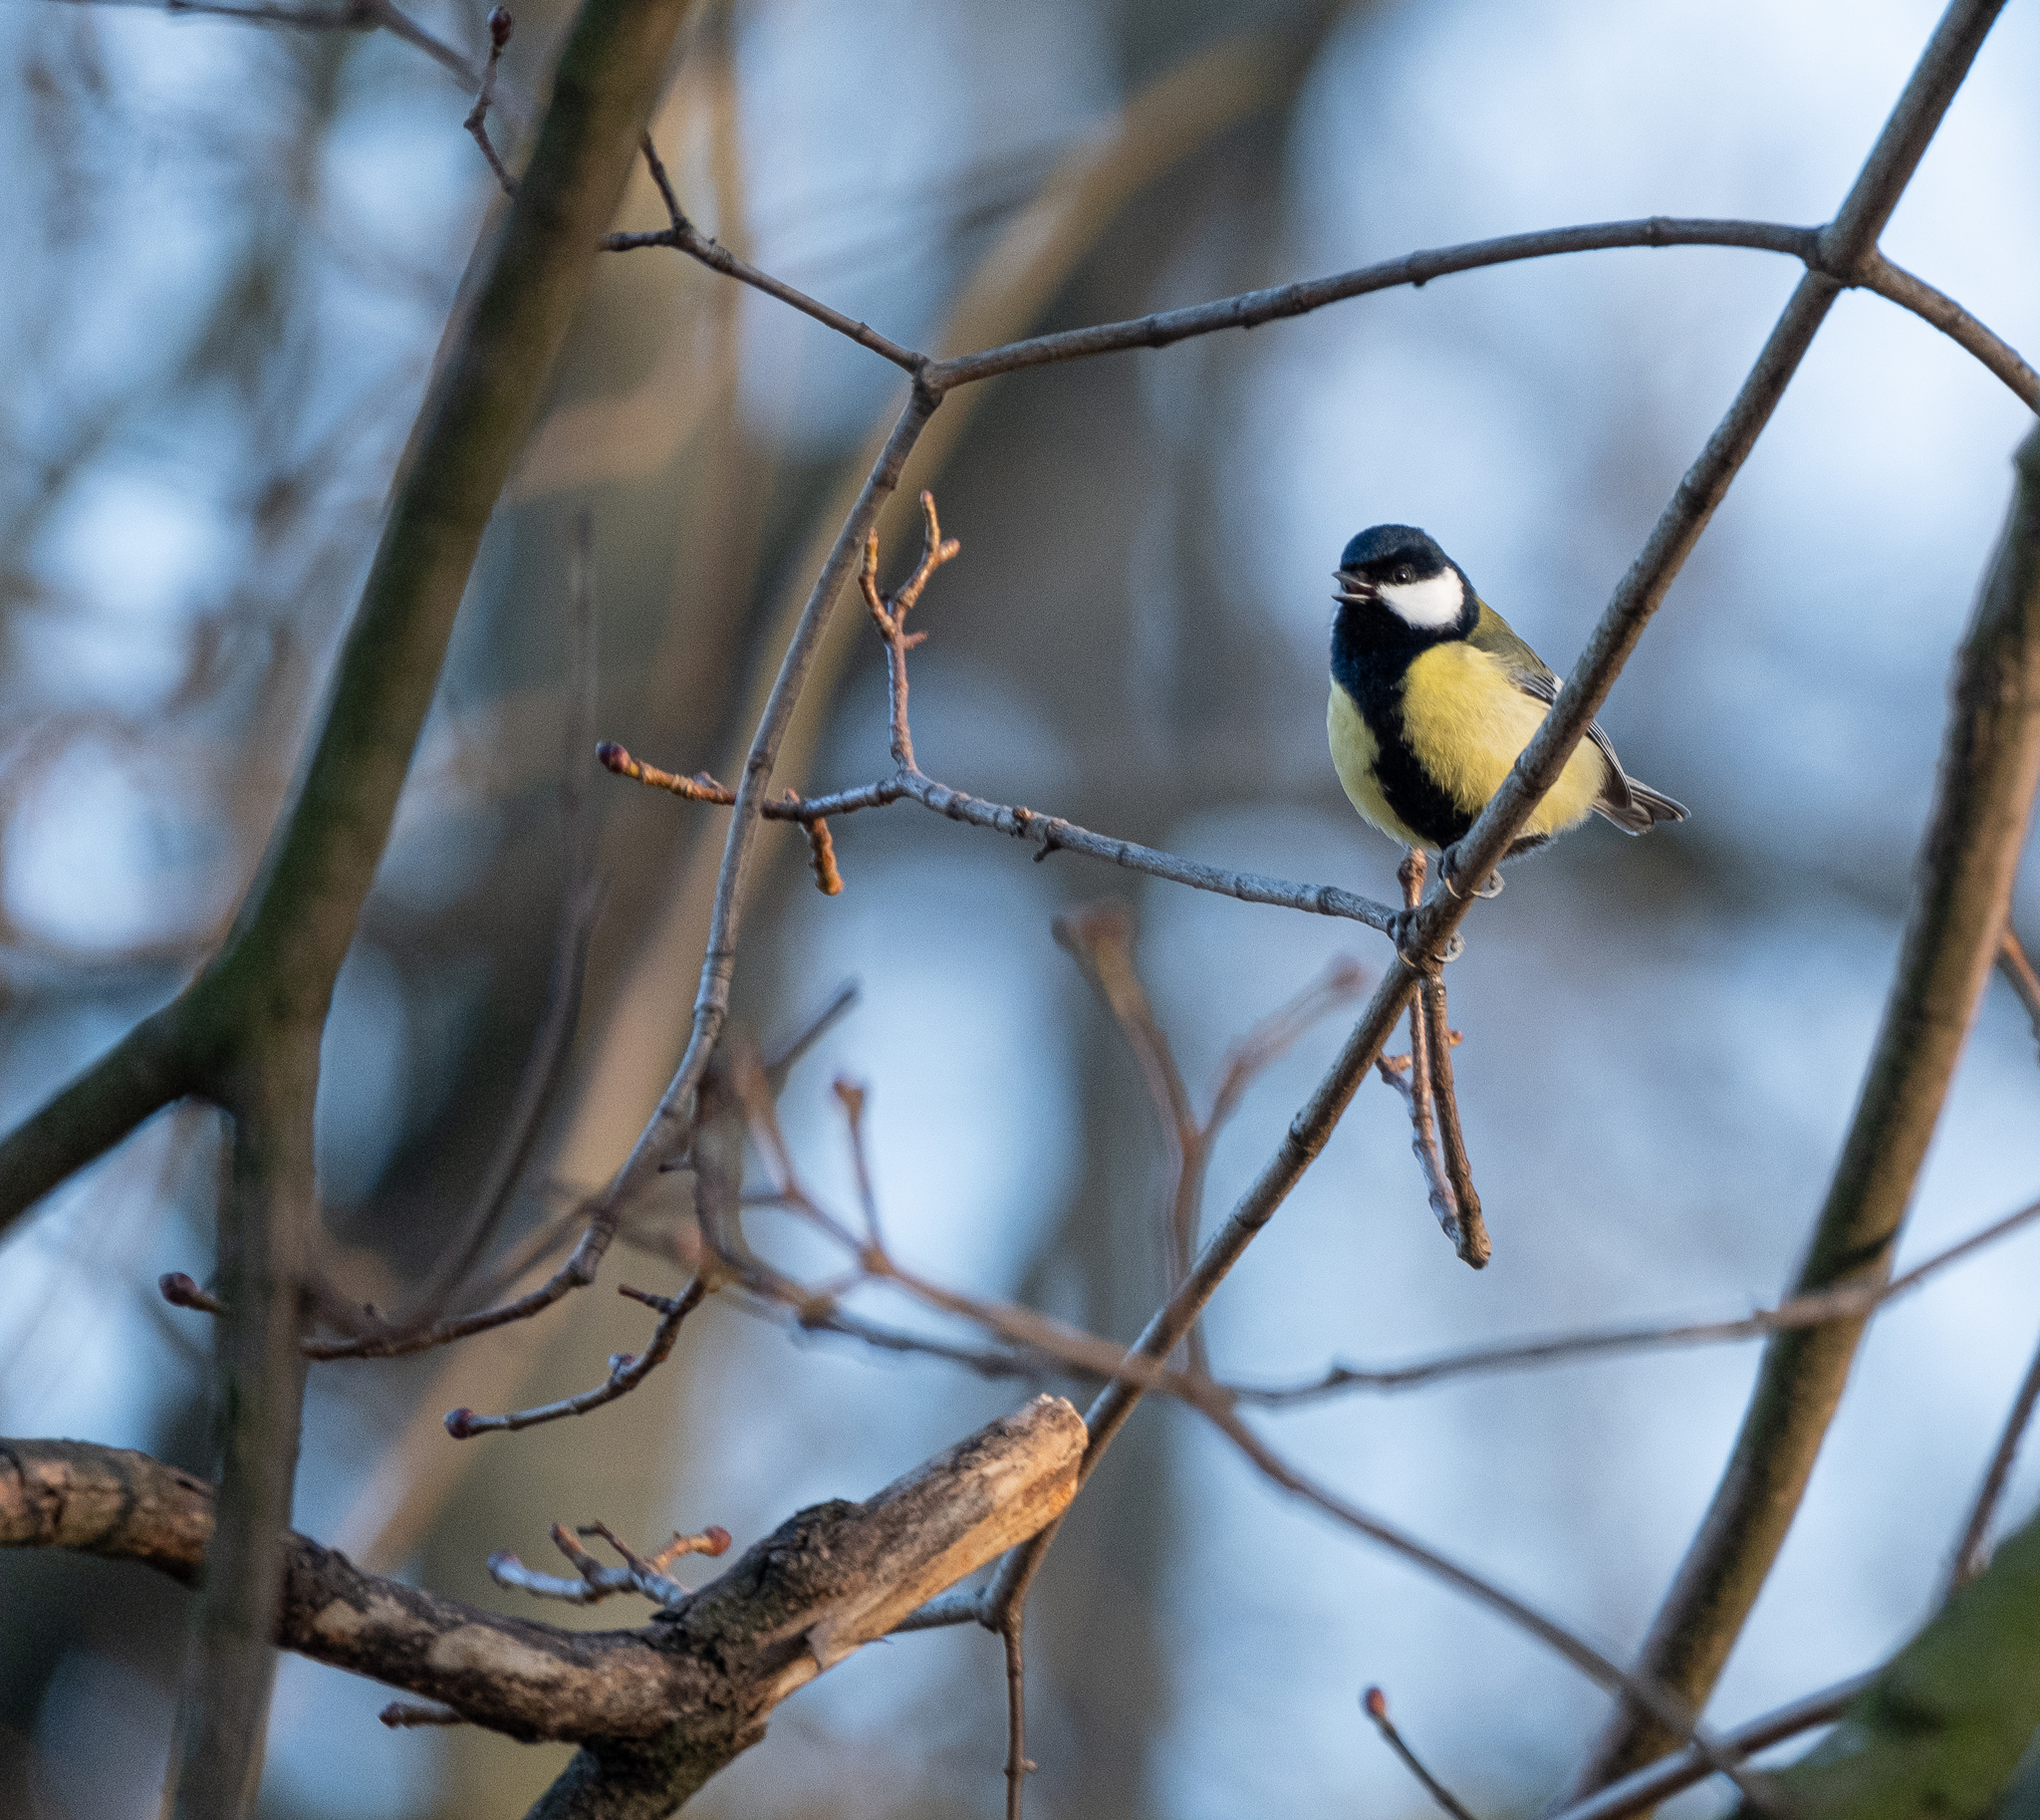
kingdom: Animalia
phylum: Chordata
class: Aves
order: Passeriformes
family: Paridae
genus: Parus
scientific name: Parus major
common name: Great tit
